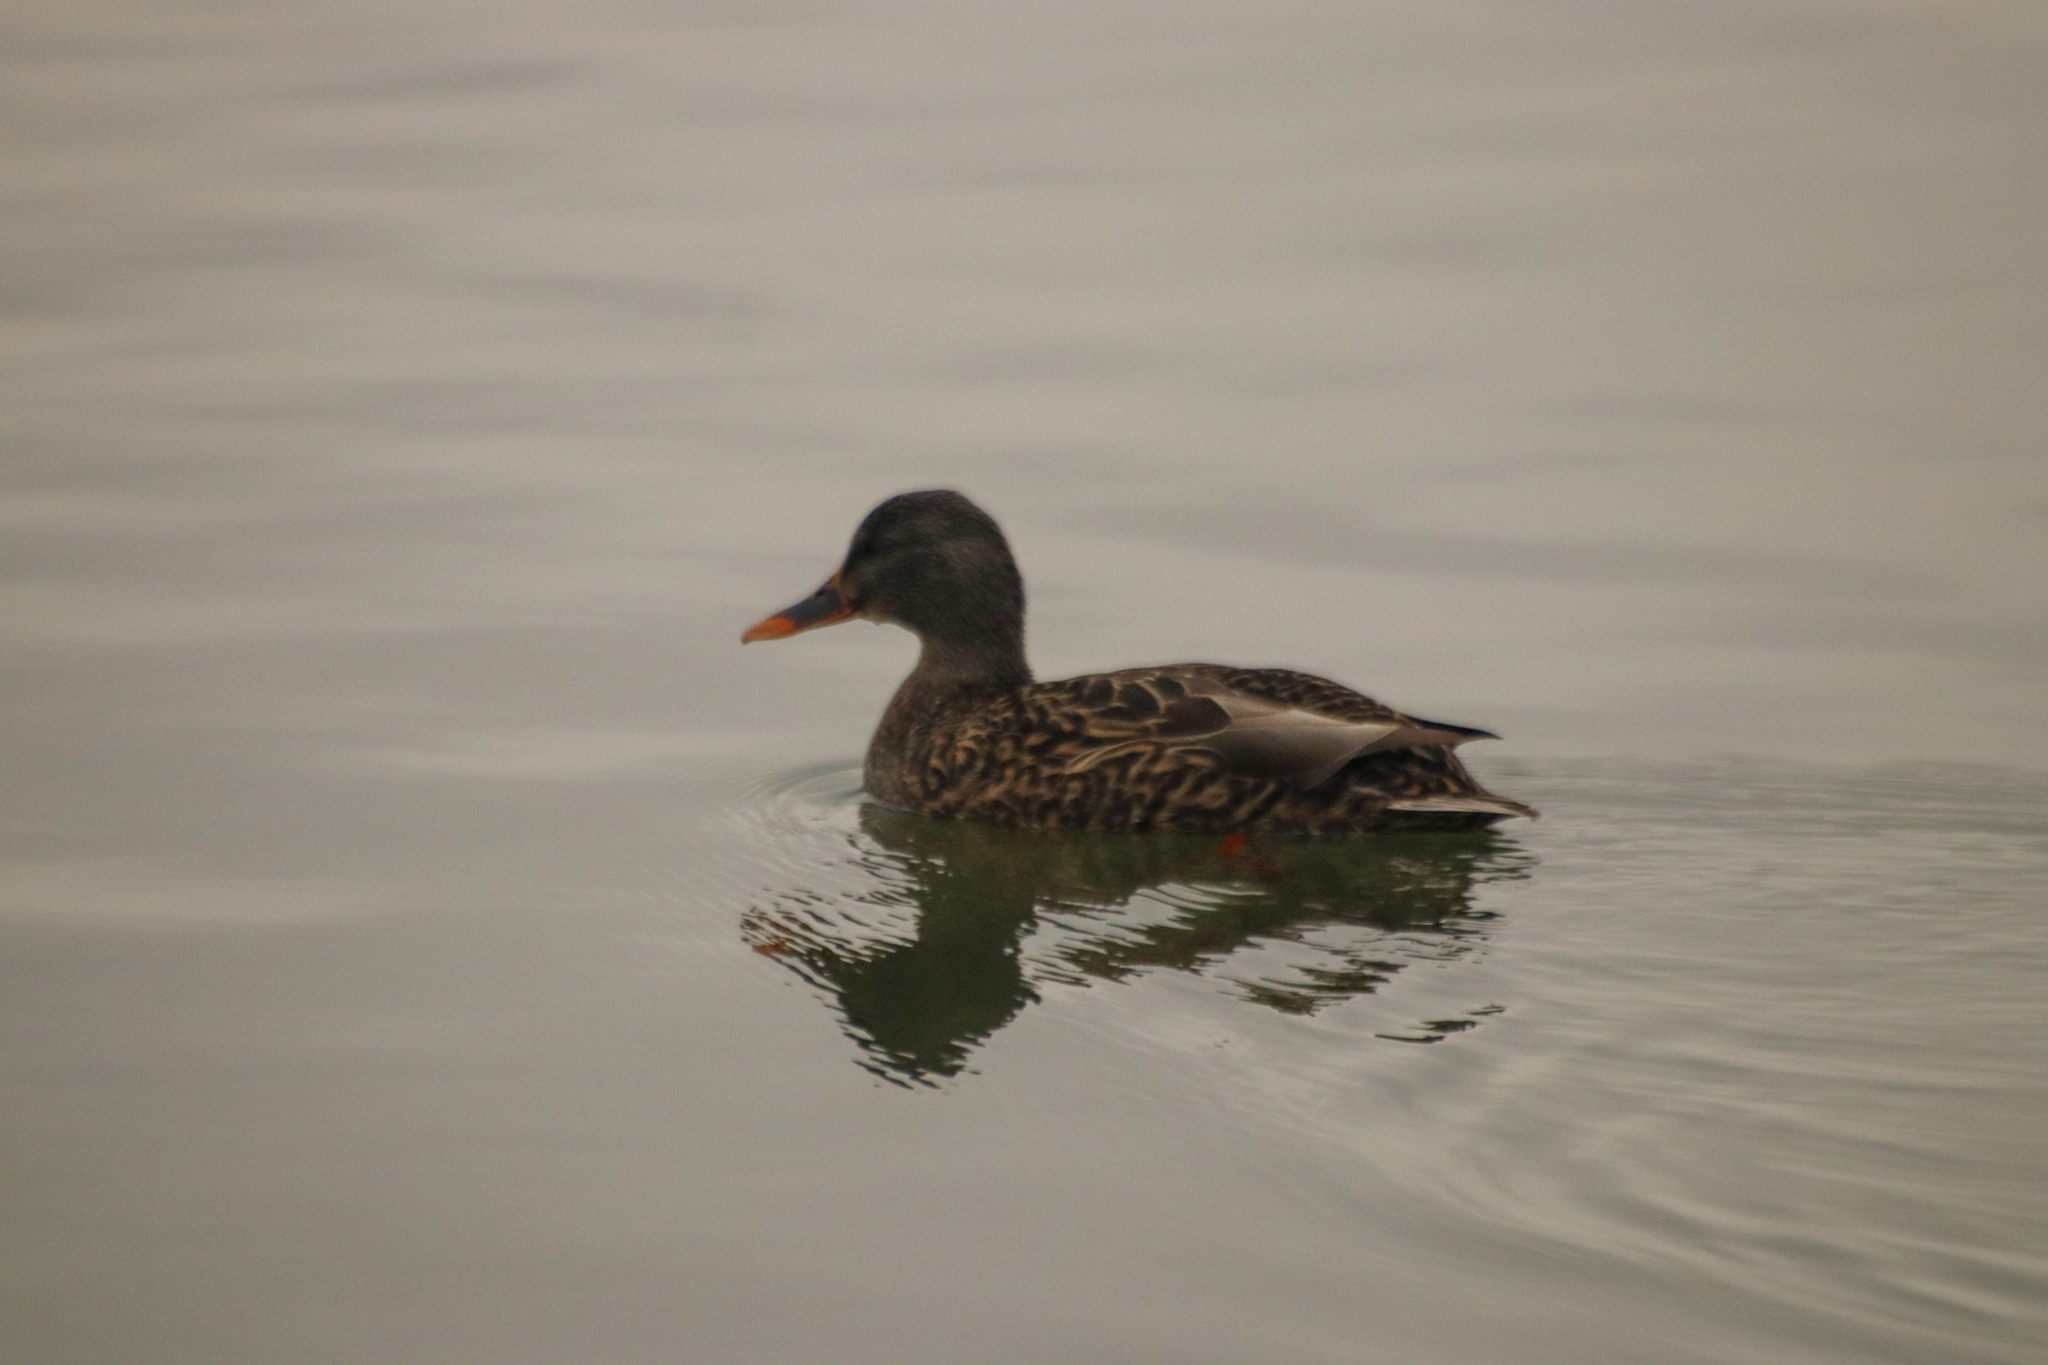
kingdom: Animalia
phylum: Chordata
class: Aves
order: Anseriformes
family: Anatidae
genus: Anas
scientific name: Anas platyrhynchos
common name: Mallard
